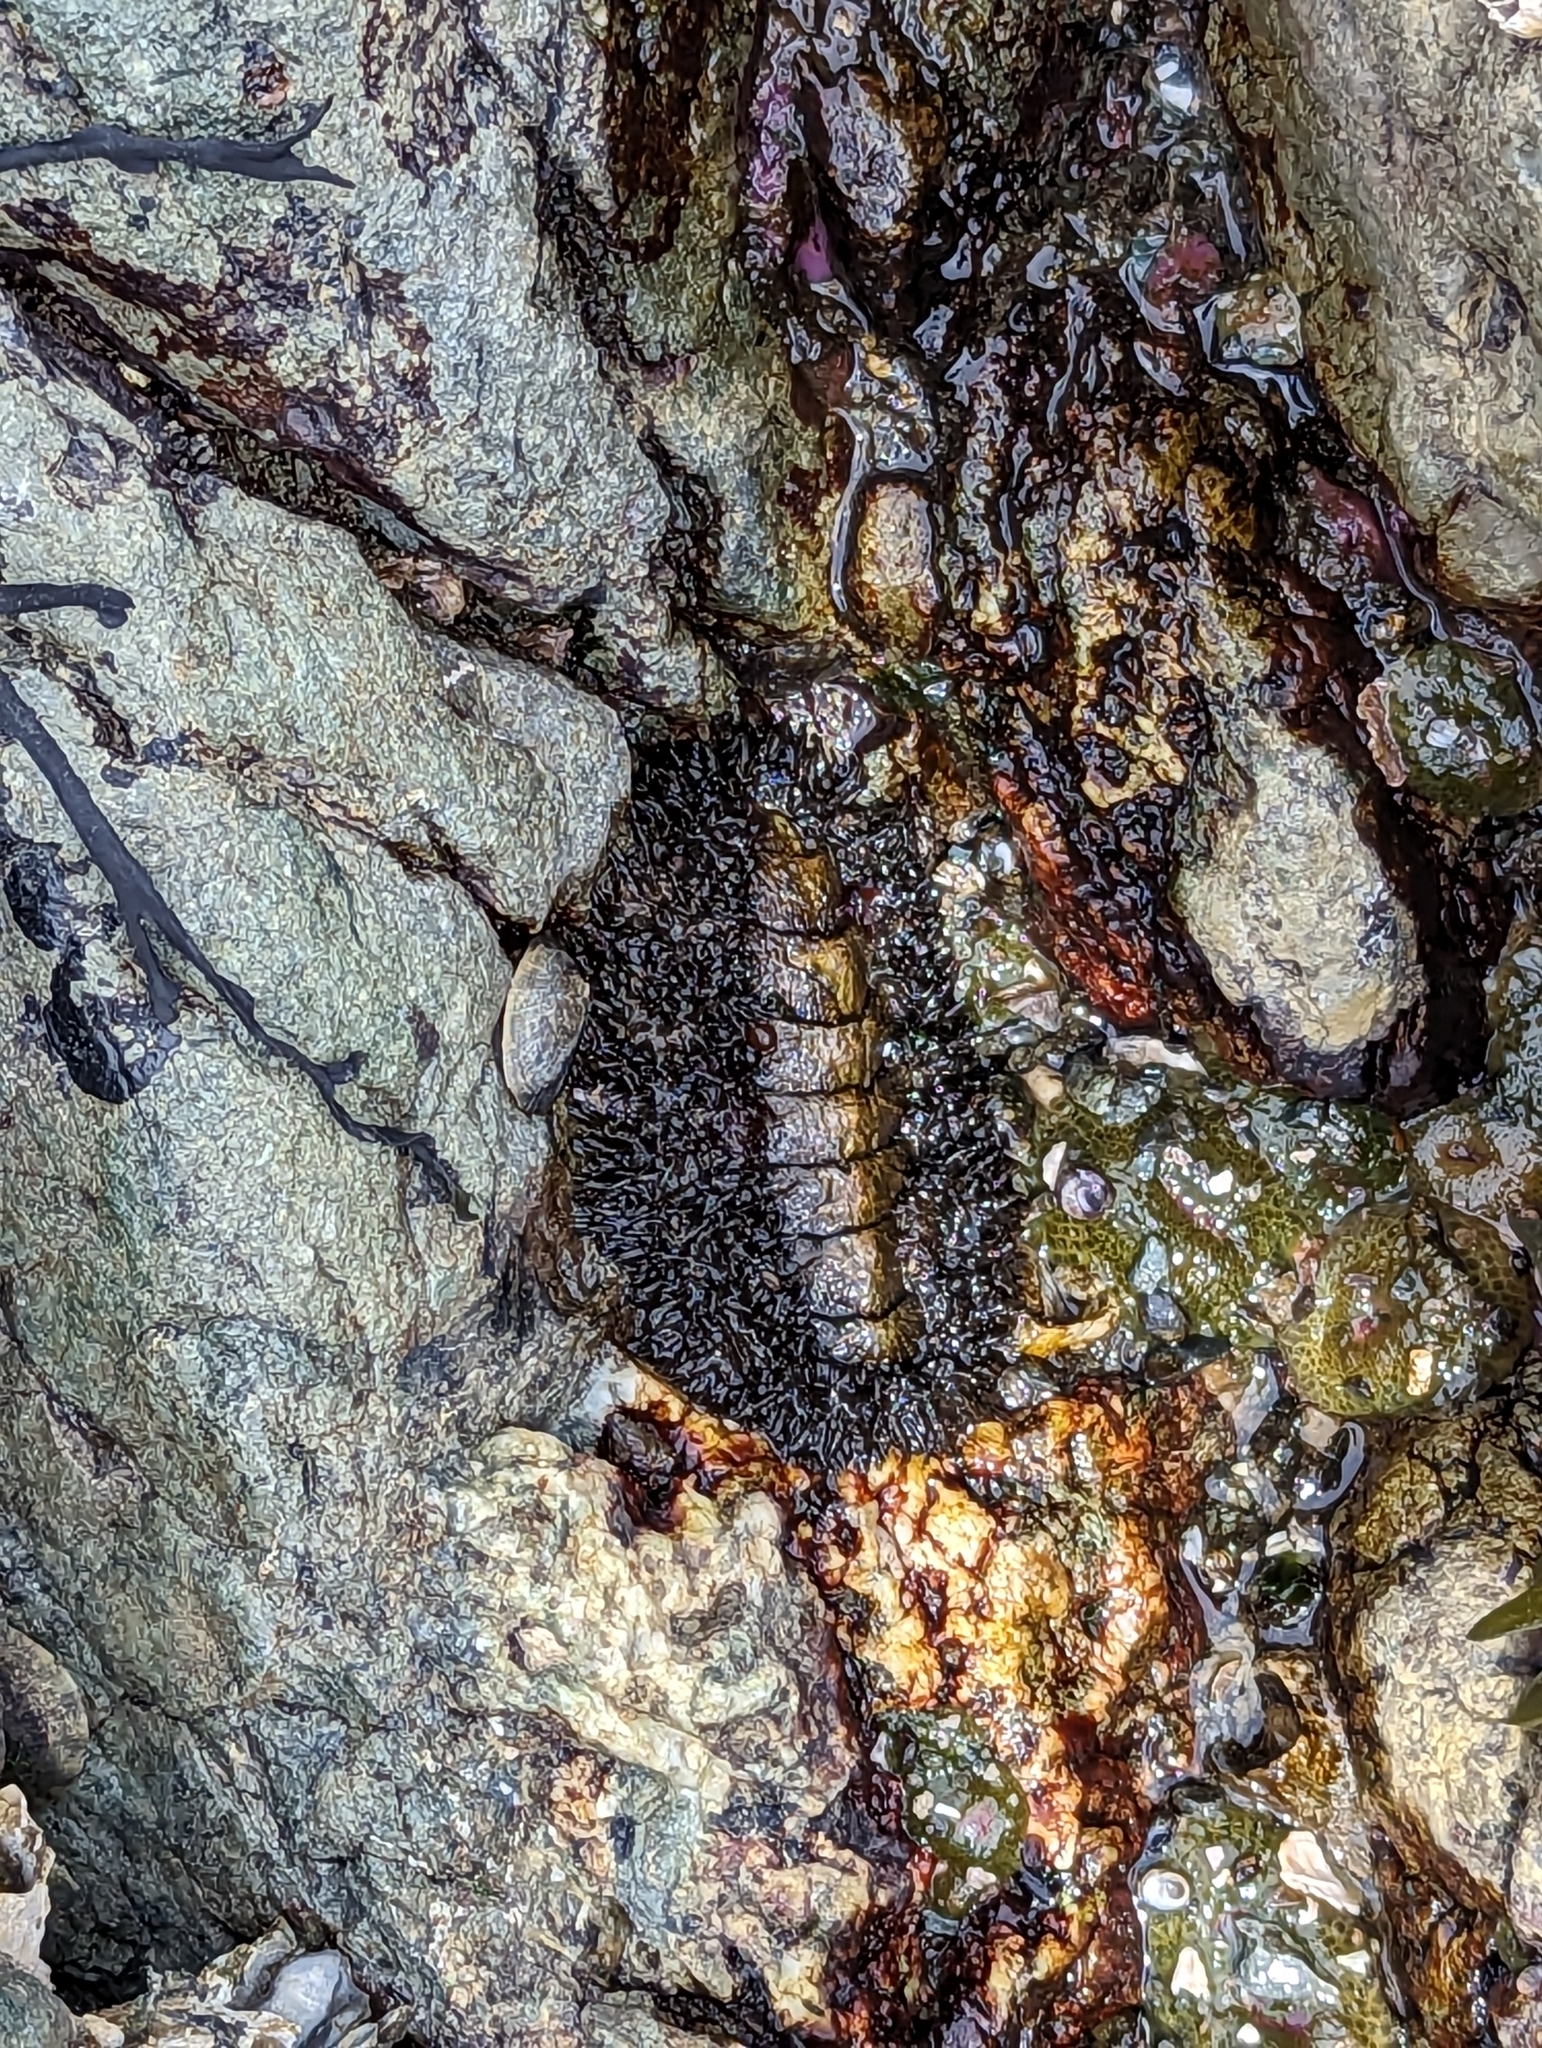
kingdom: Animalia
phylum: Mollusca
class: Polyplacophora
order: Chitonida
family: Mopaliidae
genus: Mopalia
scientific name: Mopalia muscosa
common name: Mossy chiton
